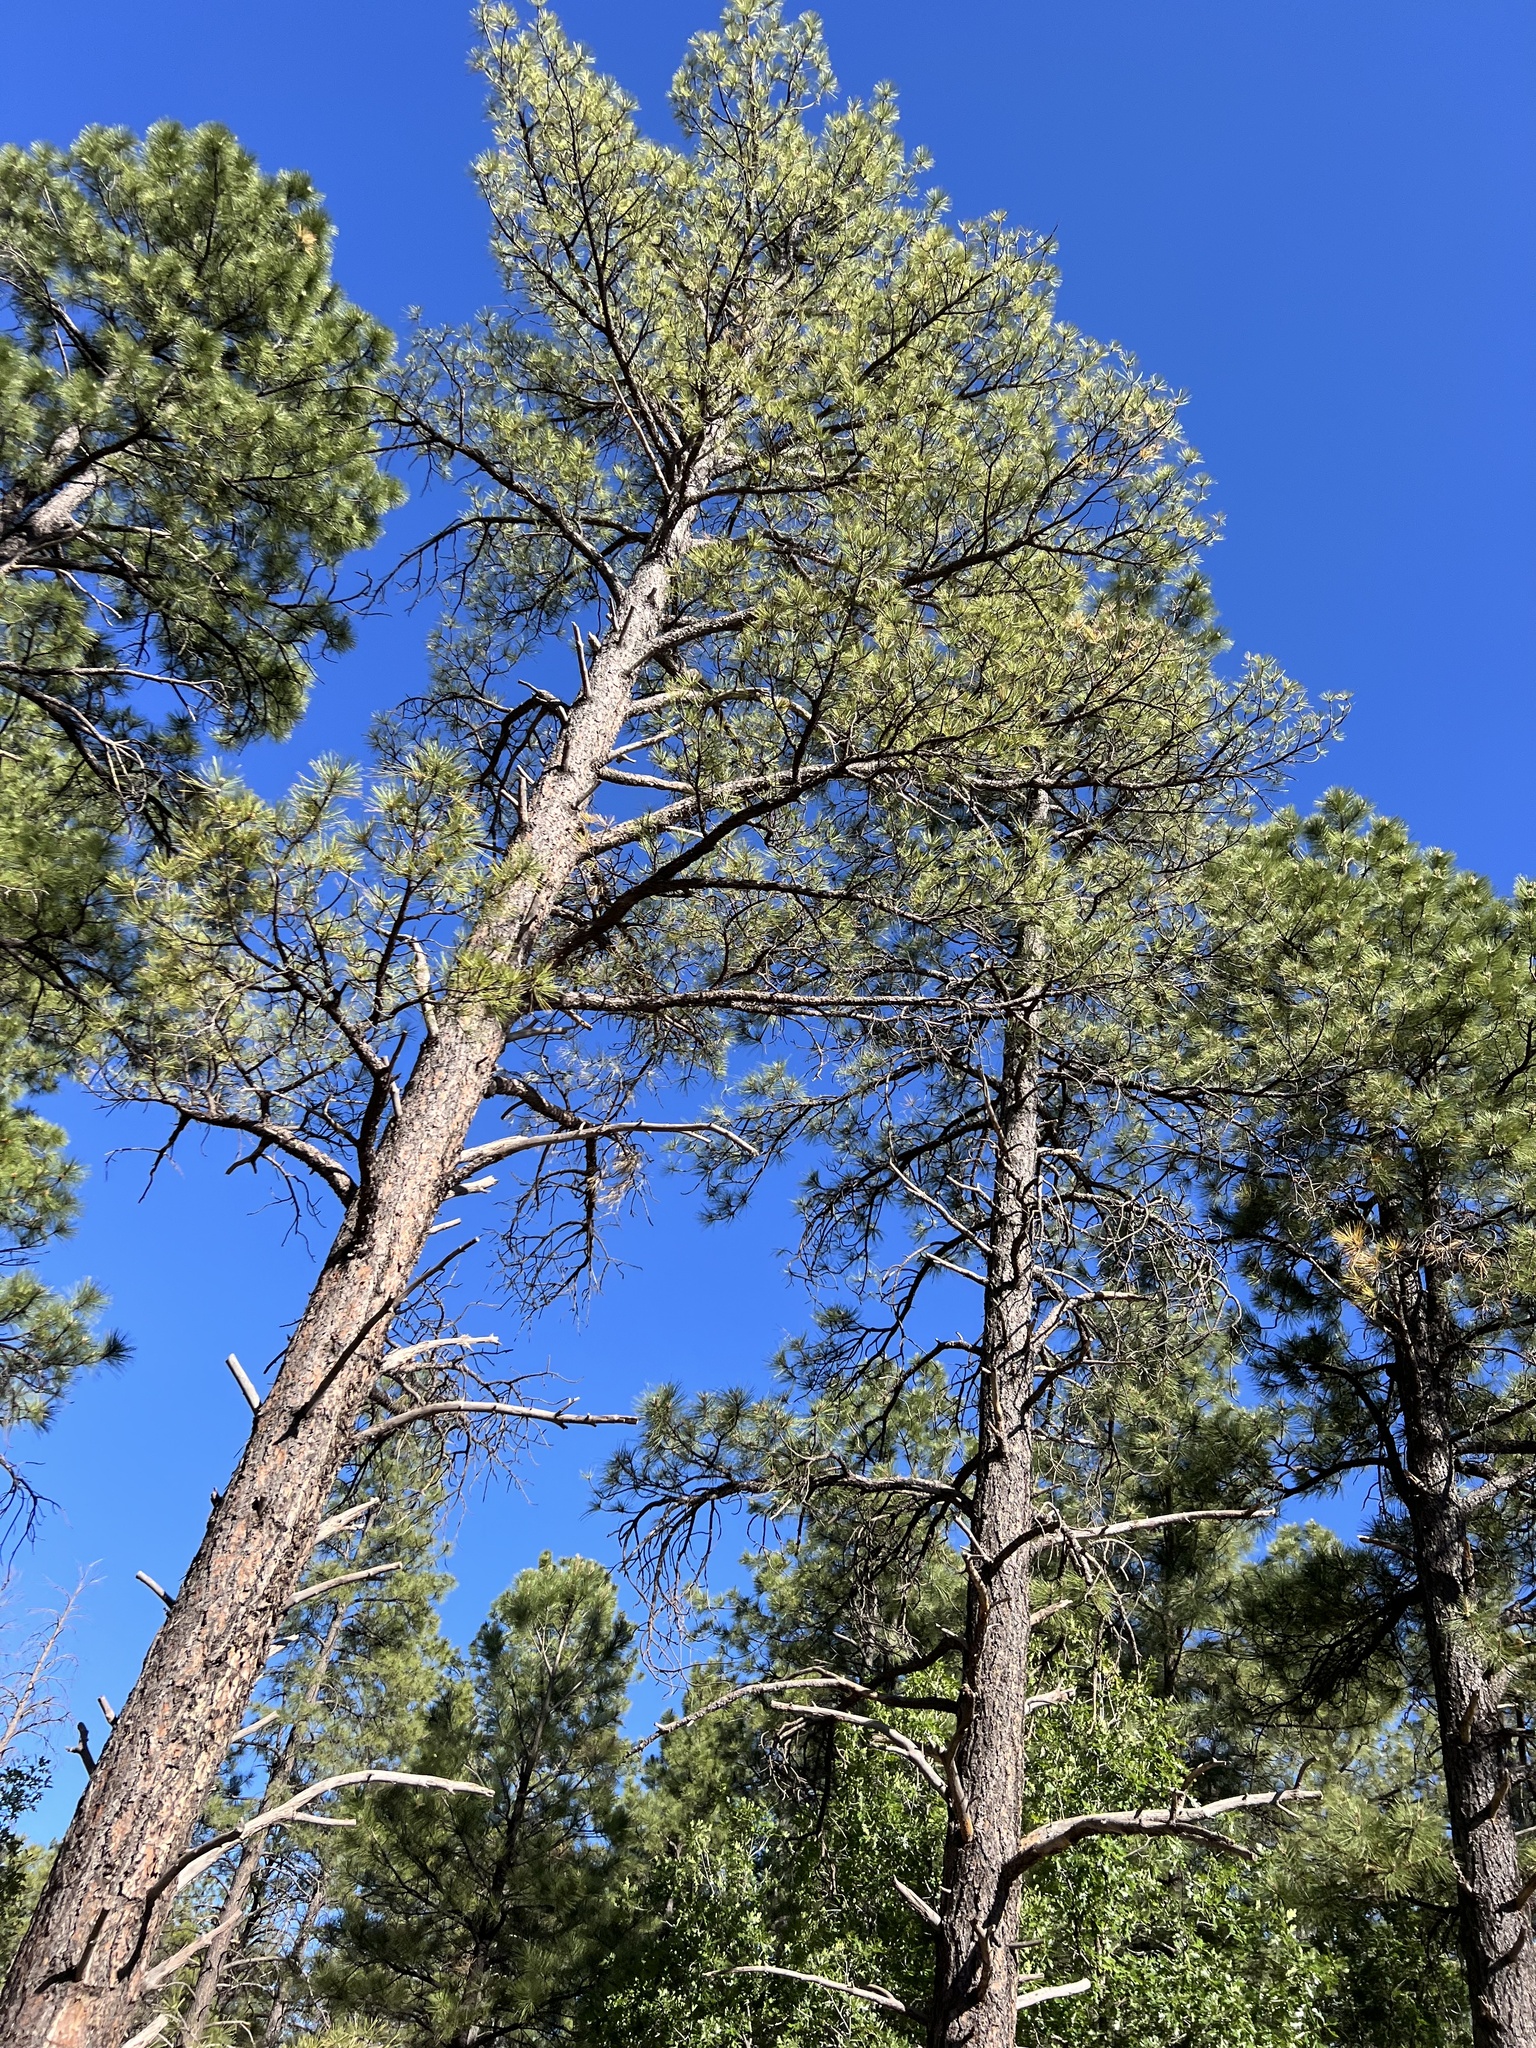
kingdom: Plantae
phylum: Tracheophyta
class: Pinopsida
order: Pinales
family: Pinaceae
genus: Pinus
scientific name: Pinus ponderosa
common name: Western yellow-pine
